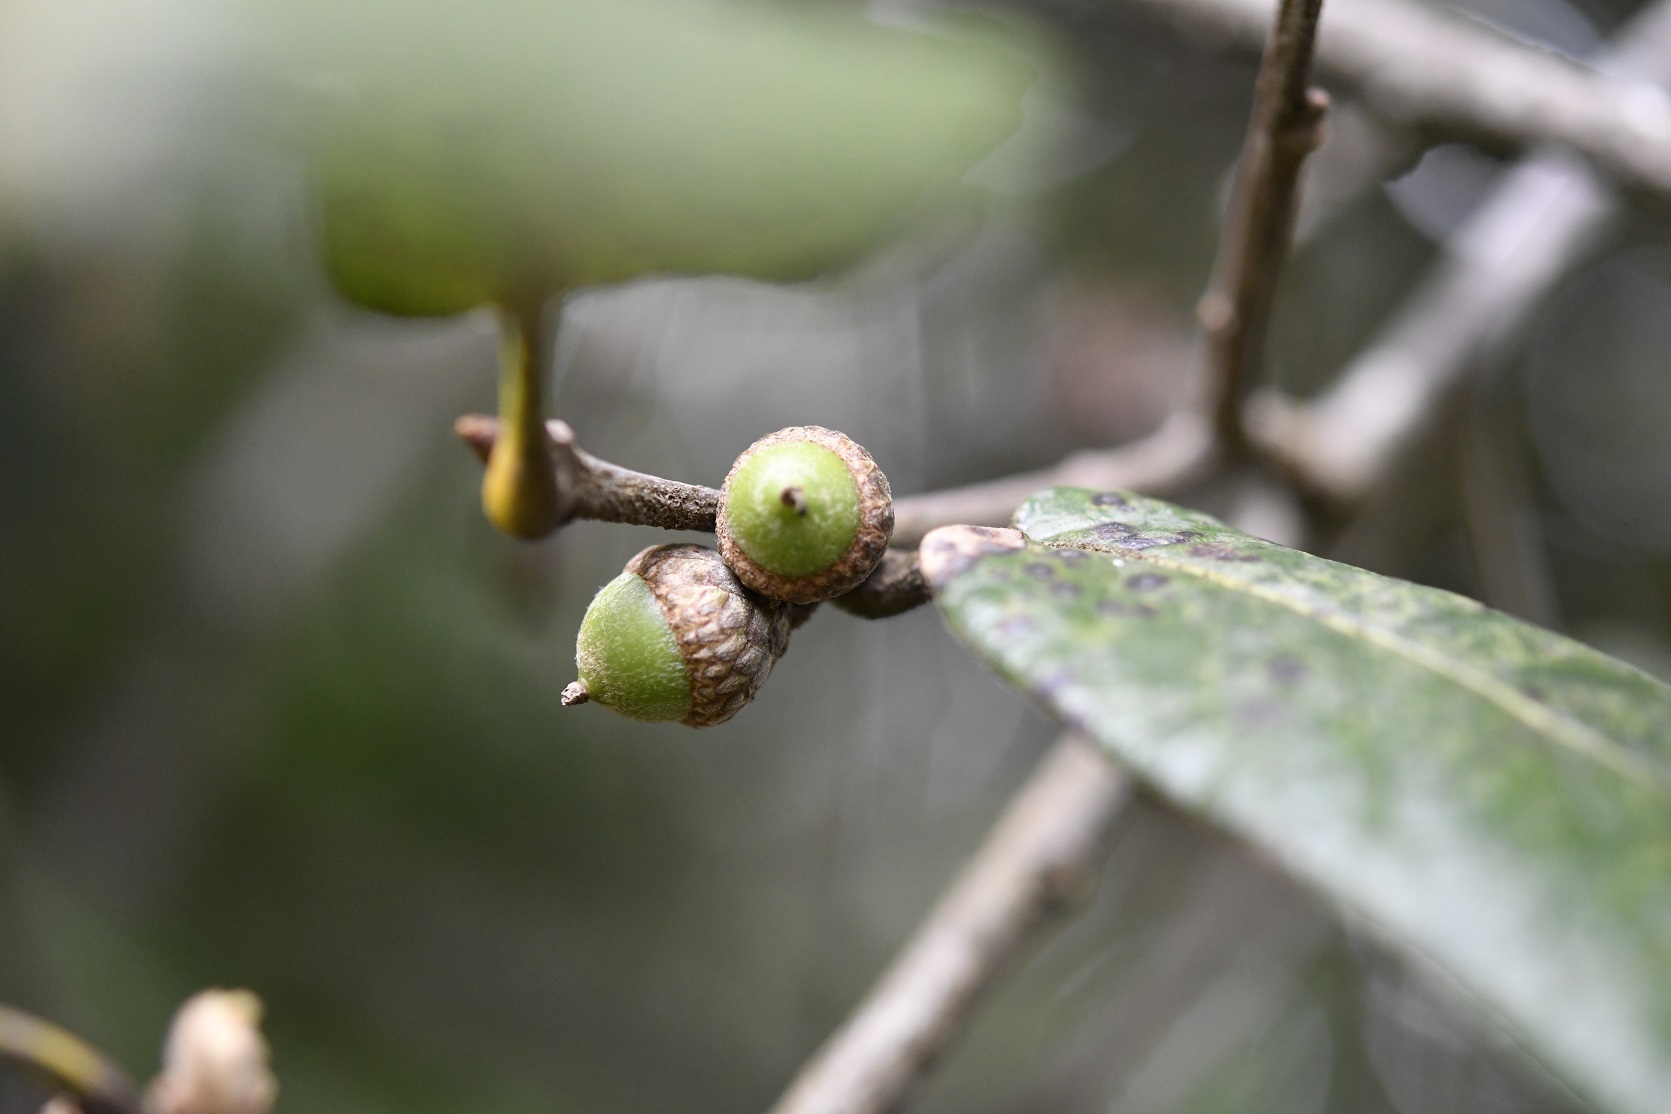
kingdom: Plantae
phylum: Tracheophyta
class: Magnoliopsida
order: Fagales
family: Fagaceae
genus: Quercus
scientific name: Quercus crassifolia
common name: Leather leaf mexican oak
